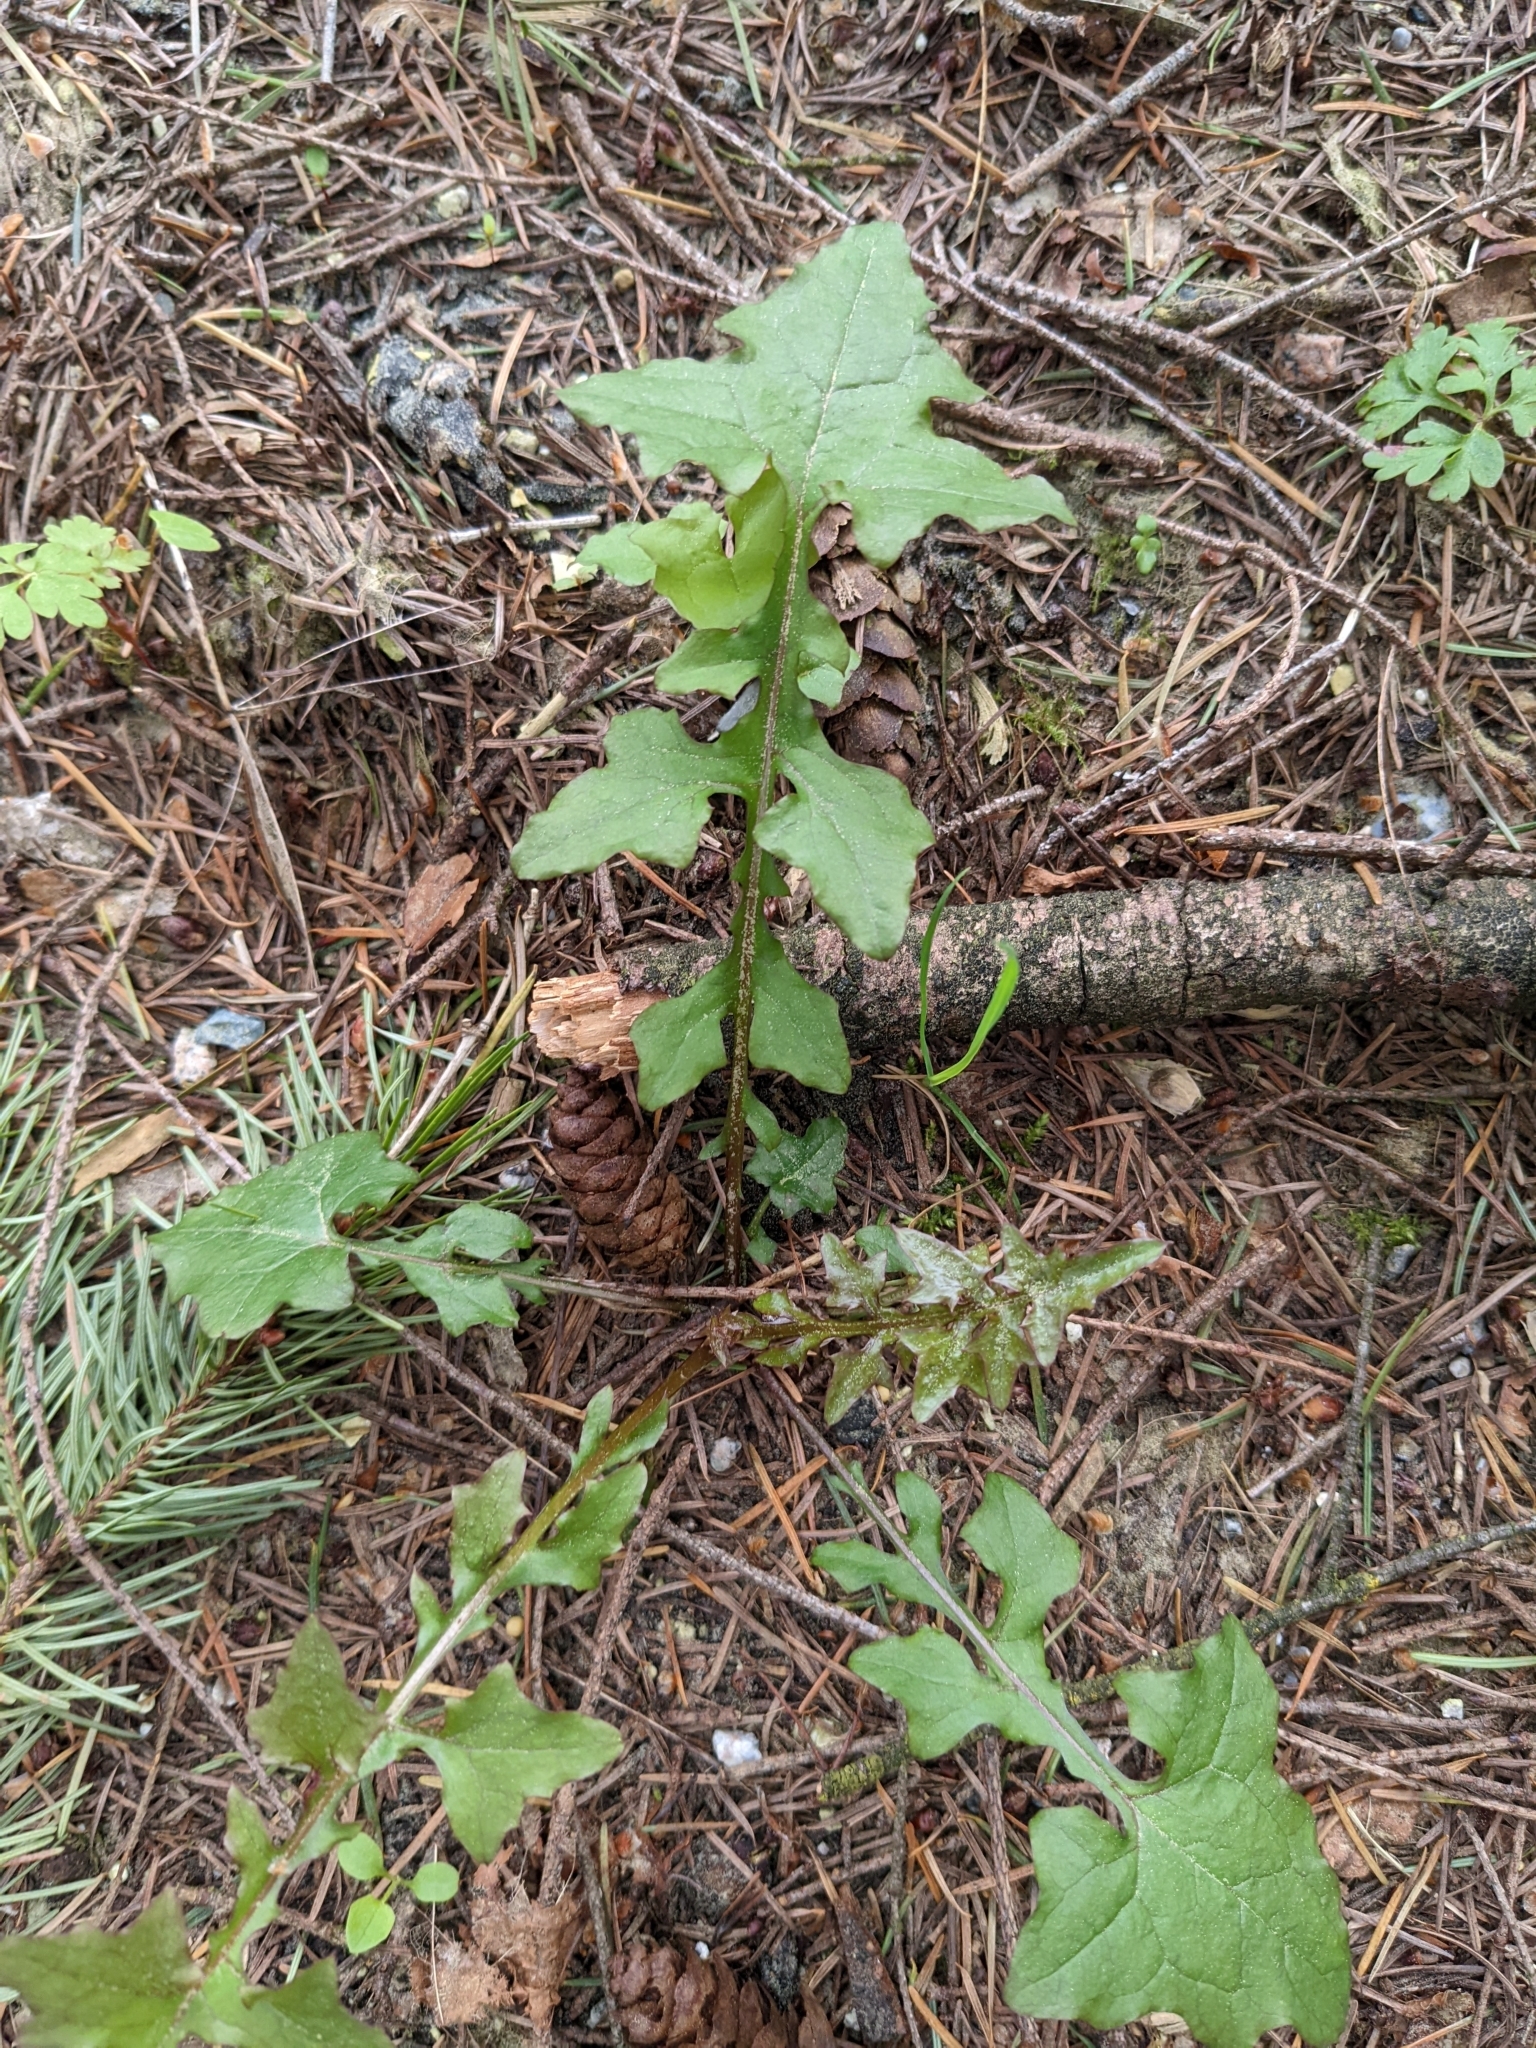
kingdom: Plantae
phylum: Tracheophyta
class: Magnoliopsida
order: Asterales
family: Asteraceae
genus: Mycelis
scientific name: Mycelis muralis
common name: Wall lettuce
